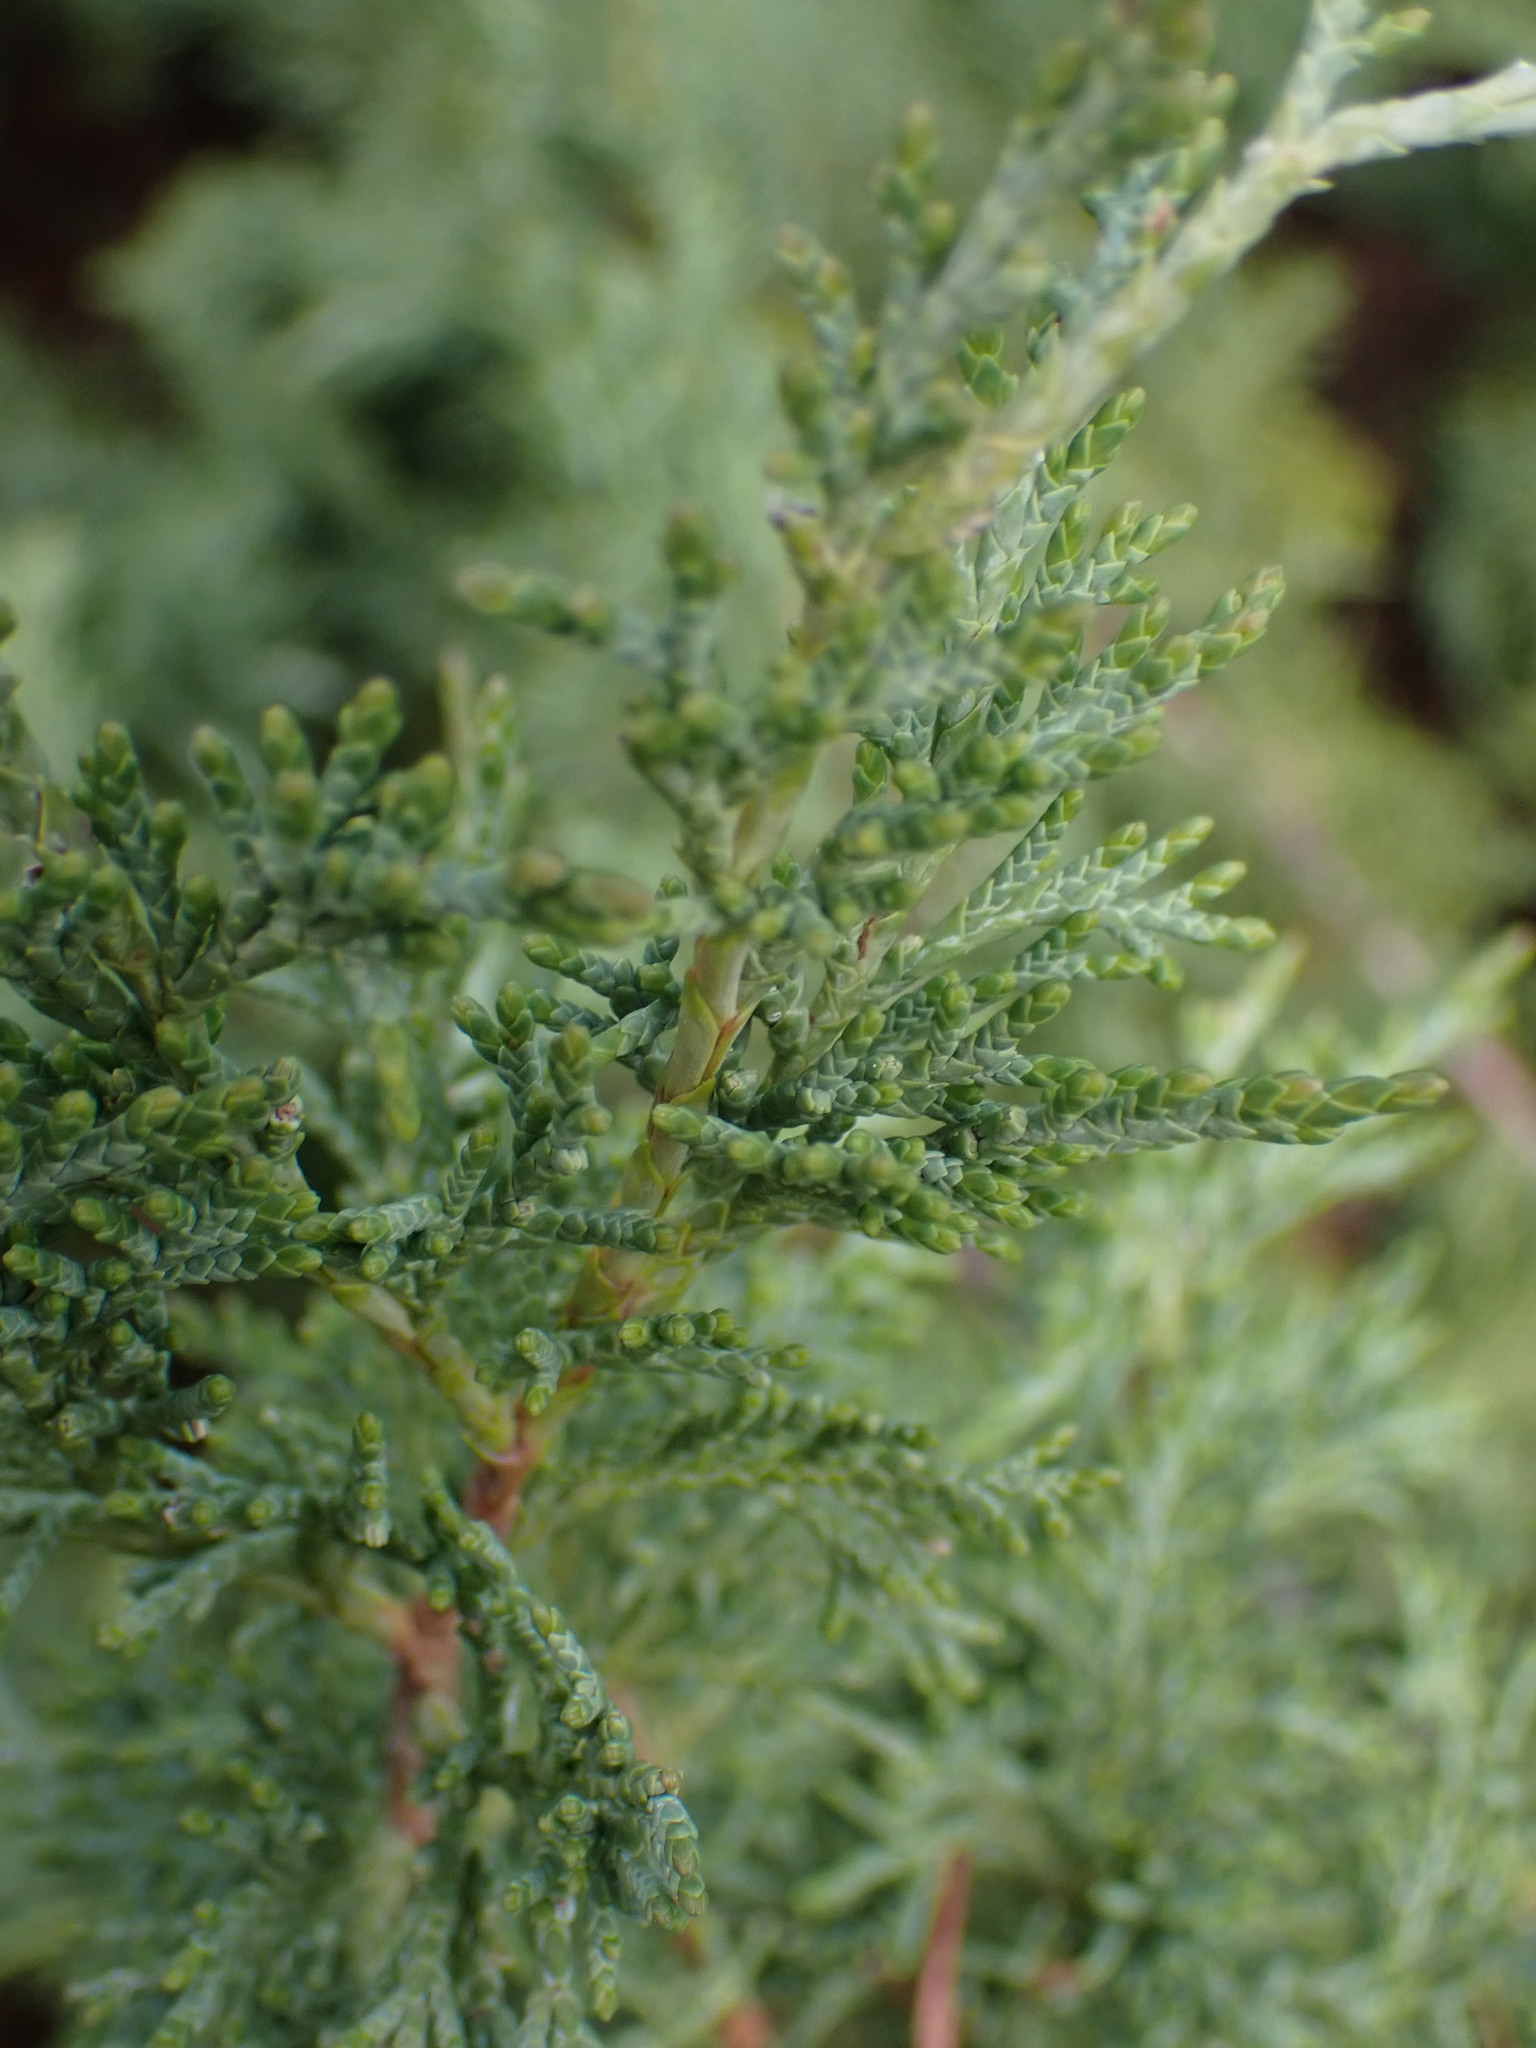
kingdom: Plantae
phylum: Tracheophyta
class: Pinopsida
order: Pinales
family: Cupressaceae
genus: Juniperus
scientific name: Juniperus scopulorum
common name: Rocky mountain juniper
